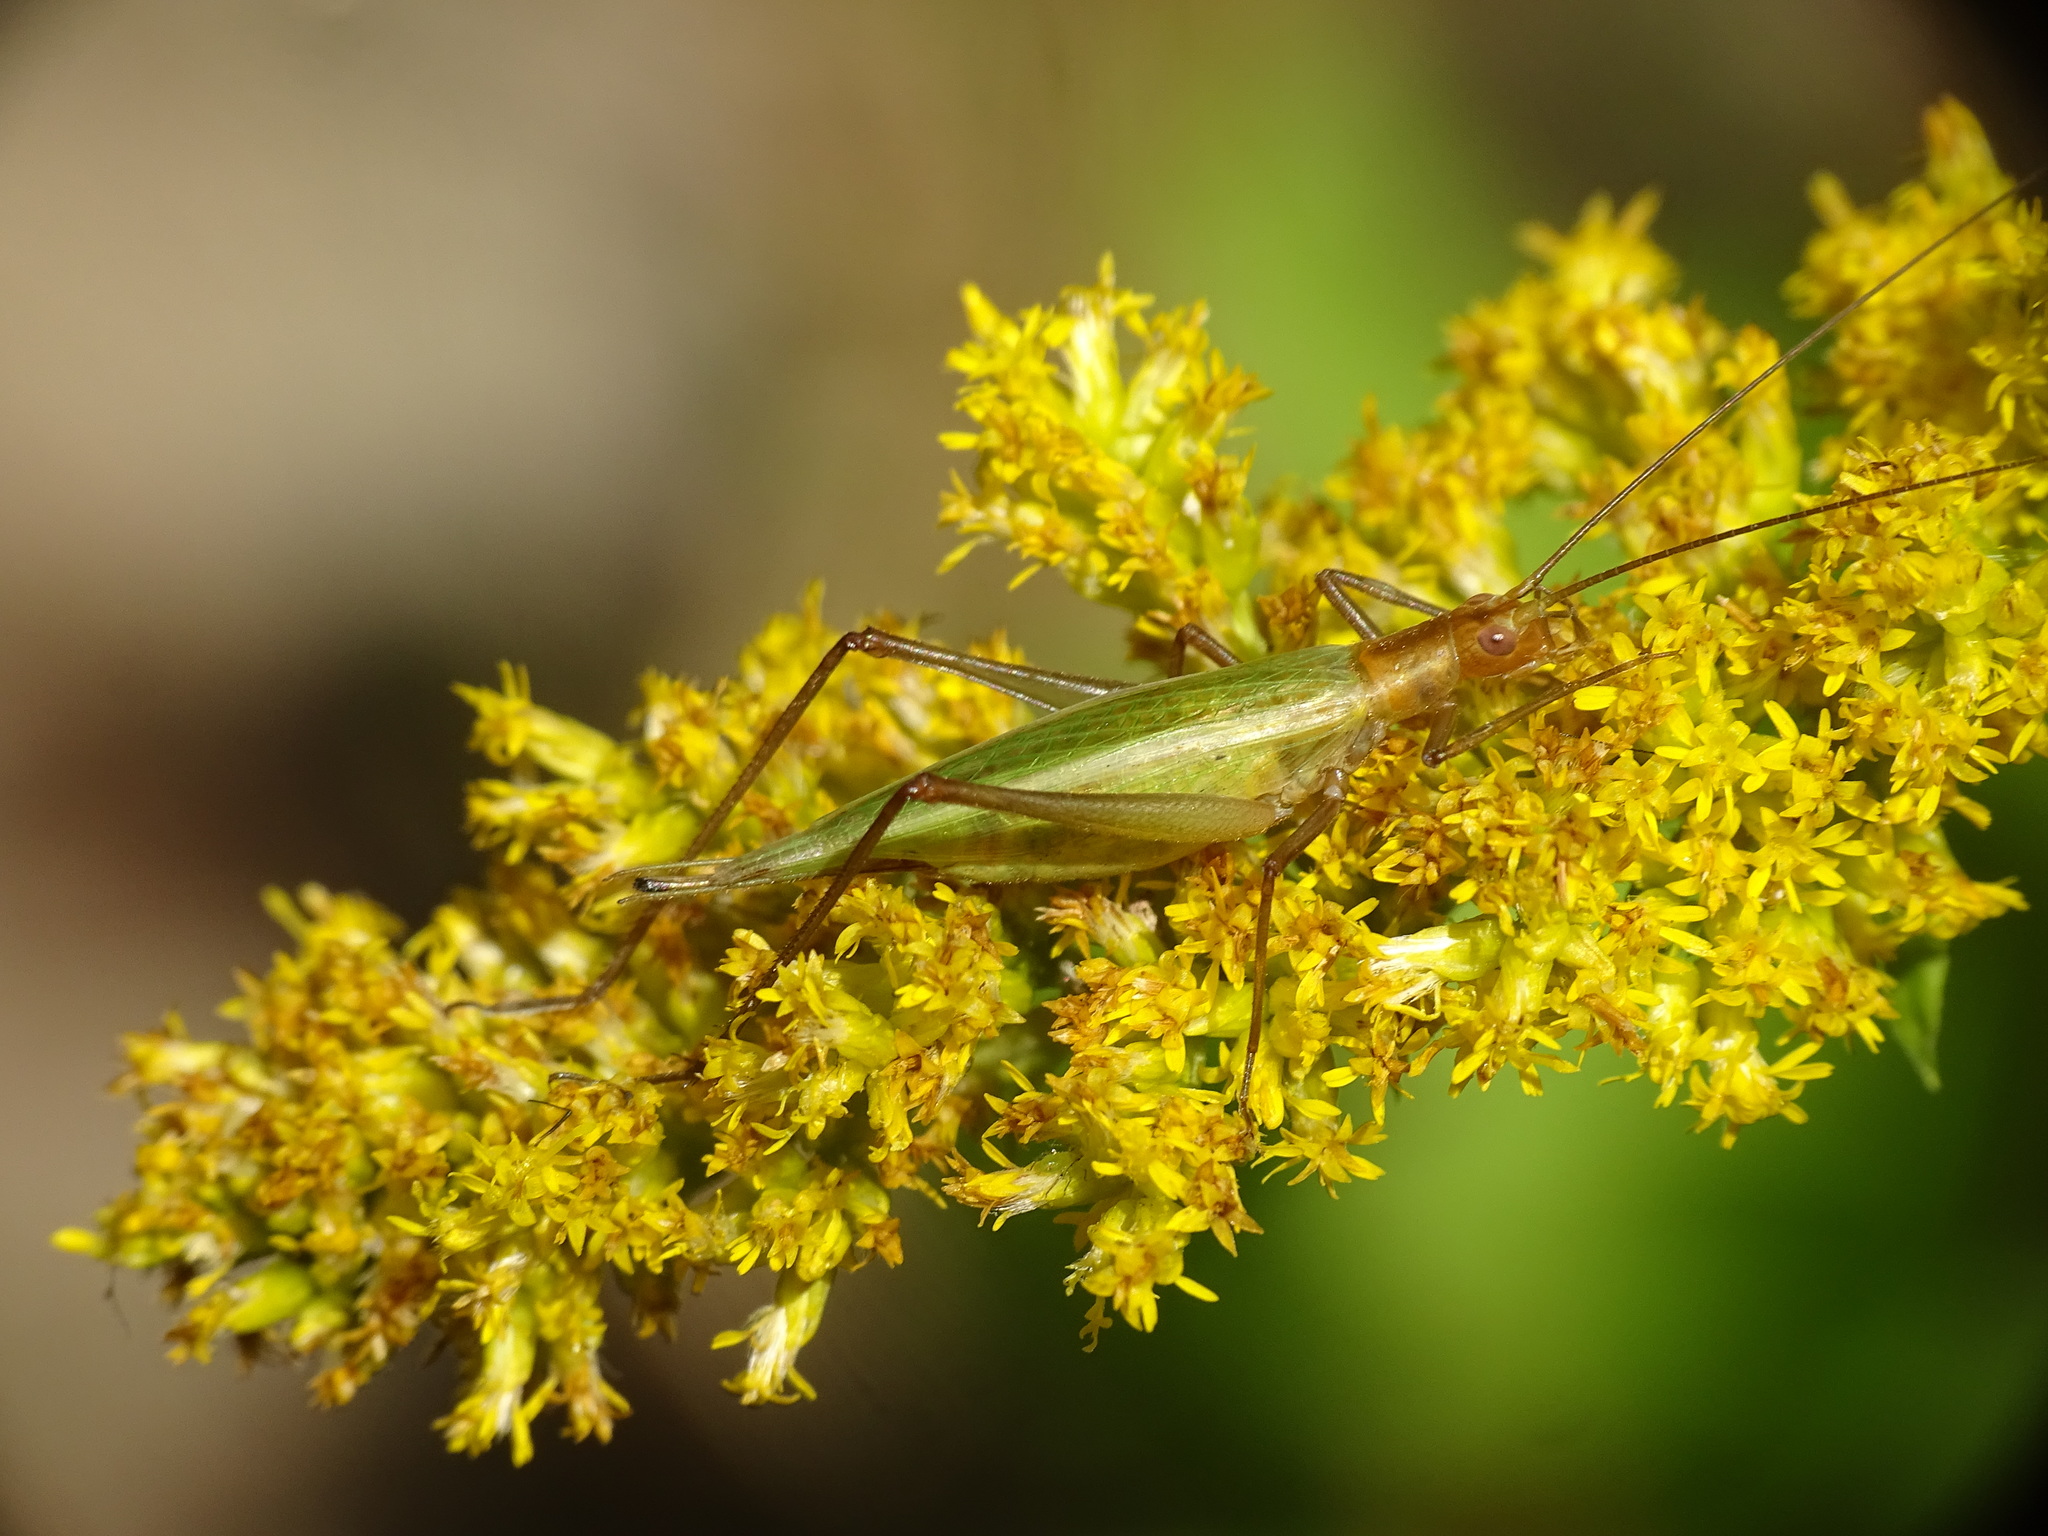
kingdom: Animalia
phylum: Arthropoda
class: Insecta
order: Orthoptera
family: Gryllidae
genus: Oecanthus
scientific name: Oecanthus pini
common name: Pine tree cricket
